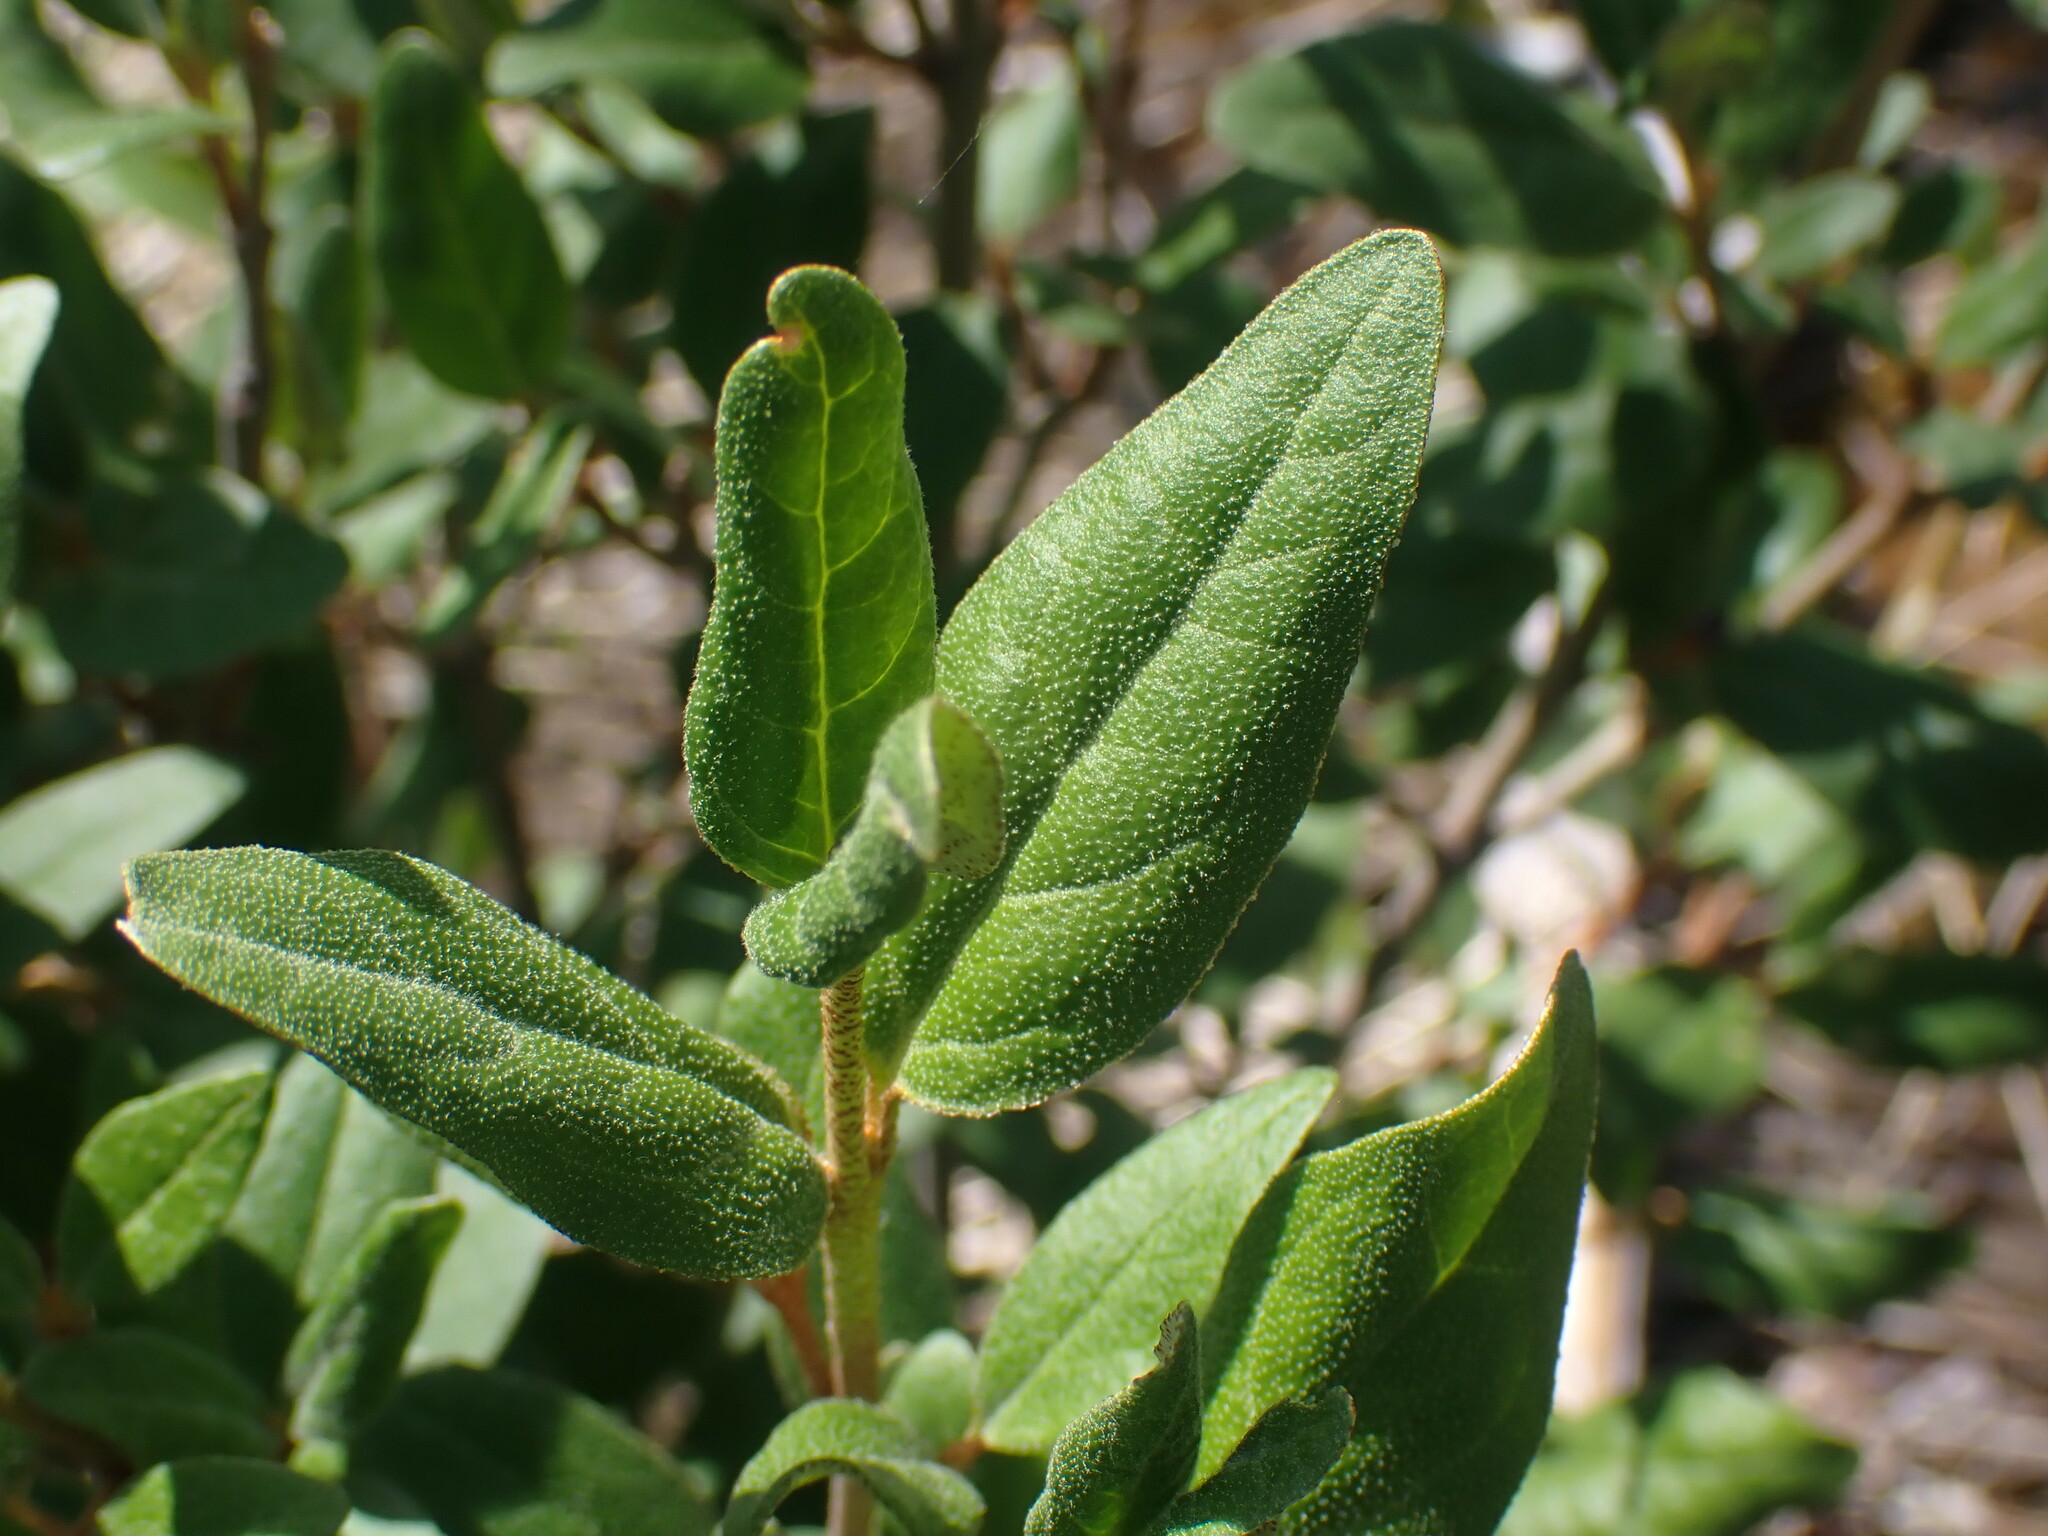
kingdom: Plantae
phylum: Tracheophyta
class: Magnoliopsida
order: Rosales
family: Elaeagnaceae
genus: Shepherdia
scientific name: Shepherdia canadensis
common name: Soapberry
